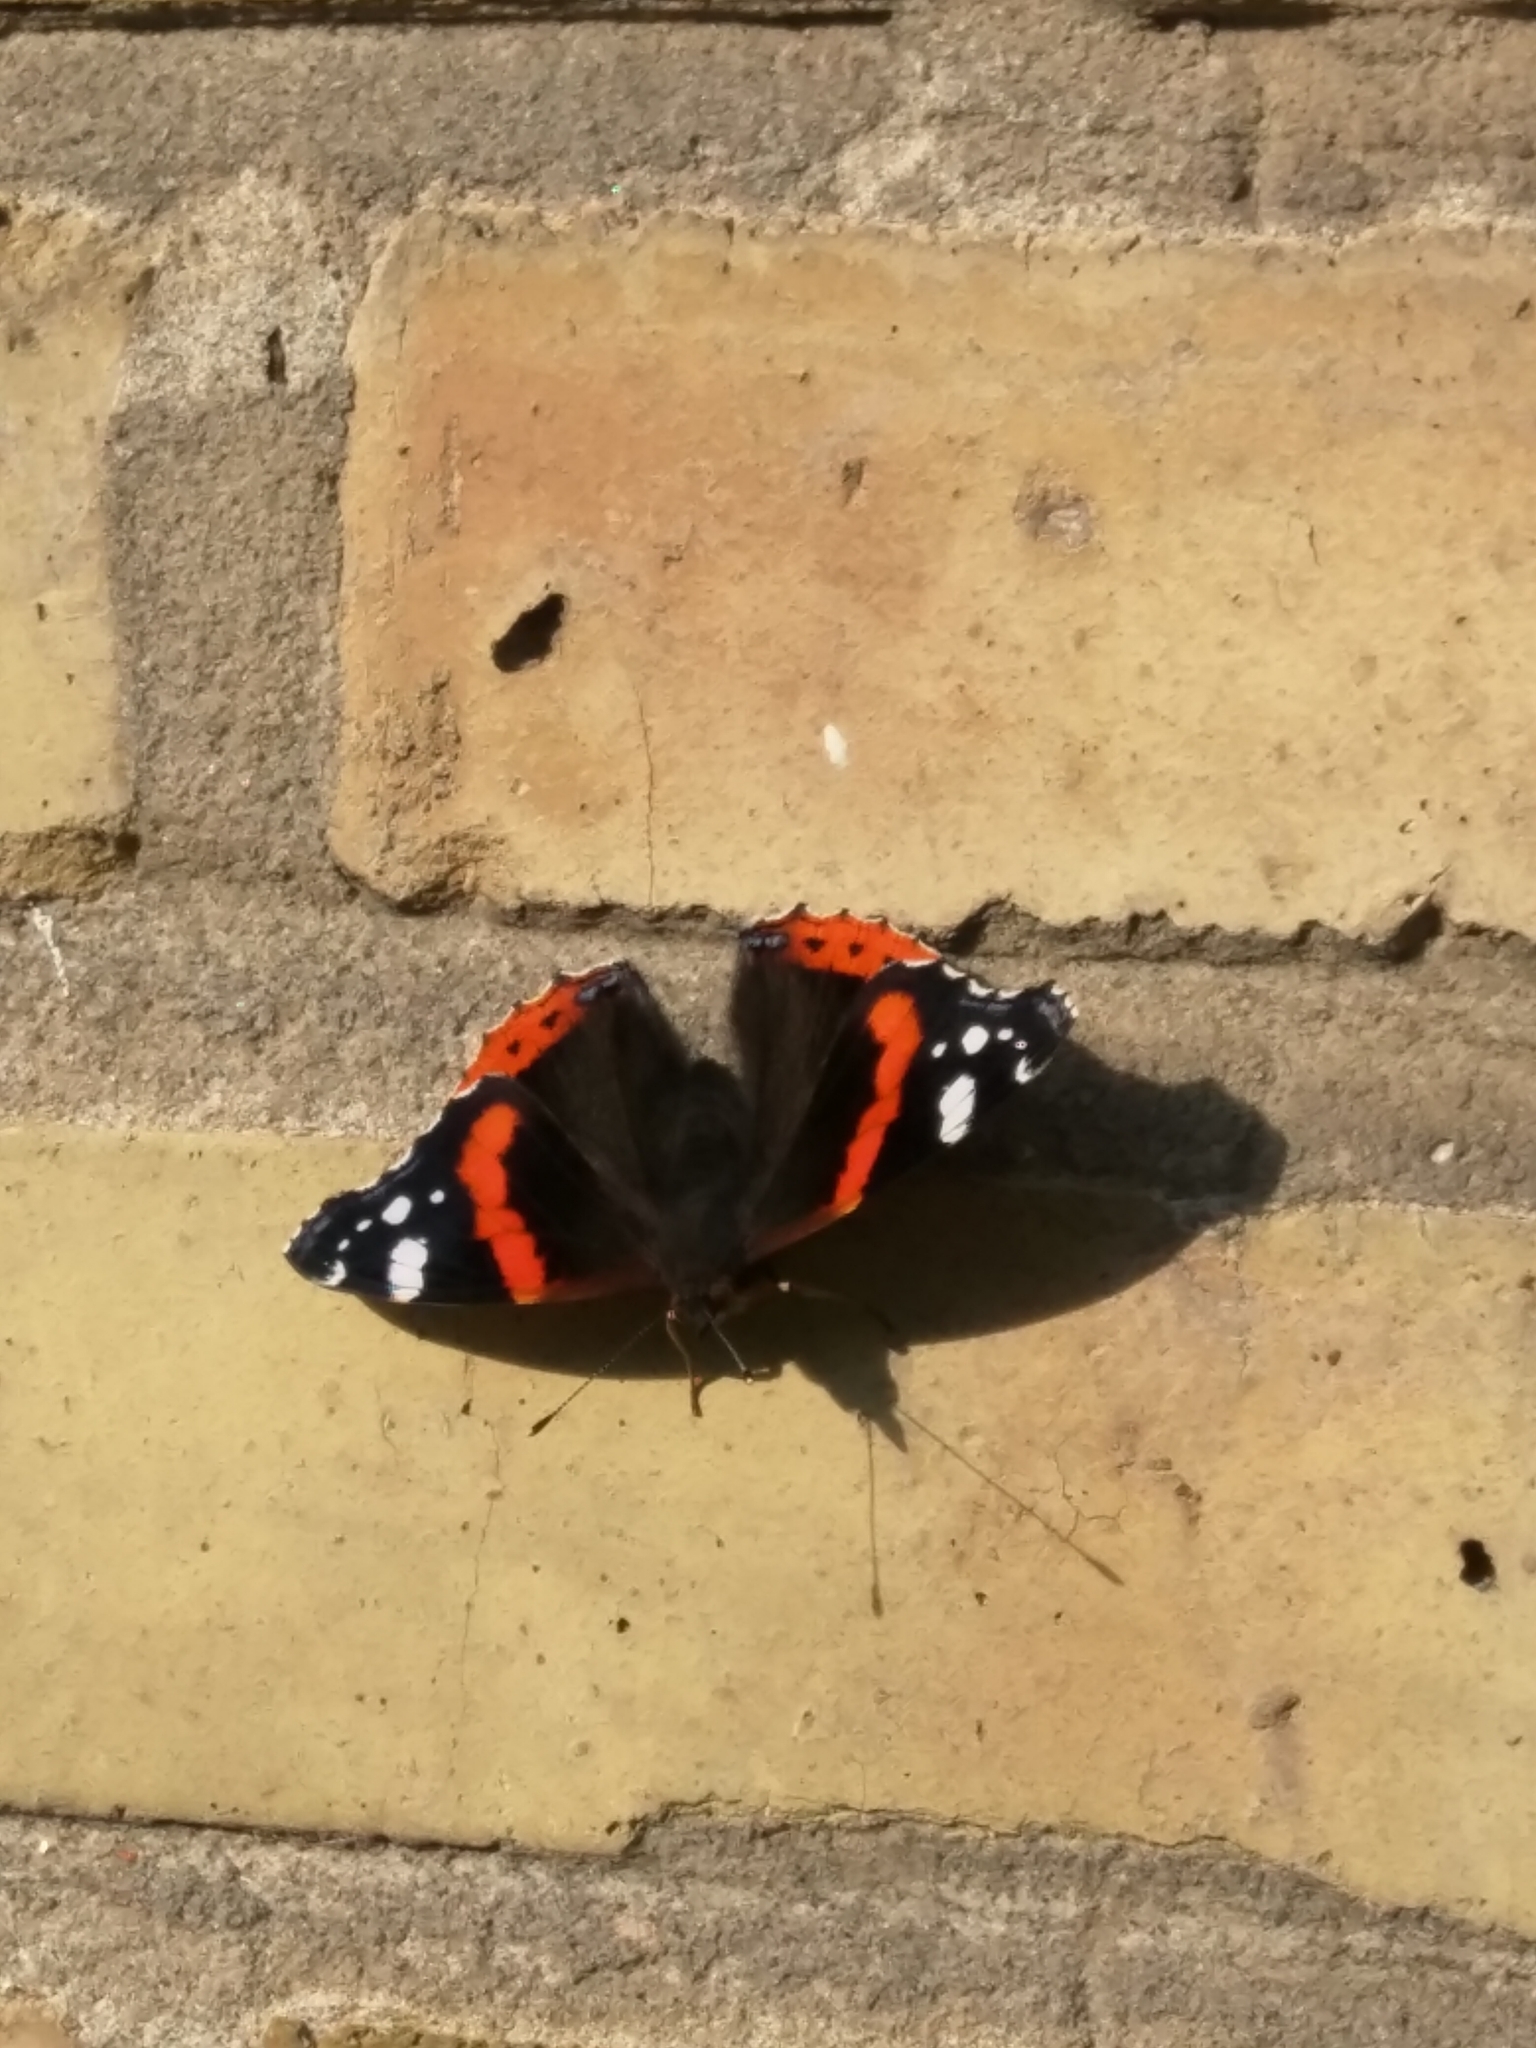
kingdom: Animalia
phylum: Arthropoda
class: Insecta
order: Lepidoptera
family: Nymphalidae
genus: Vanessa
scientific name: Vanessa atalanta
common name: Red admiral
